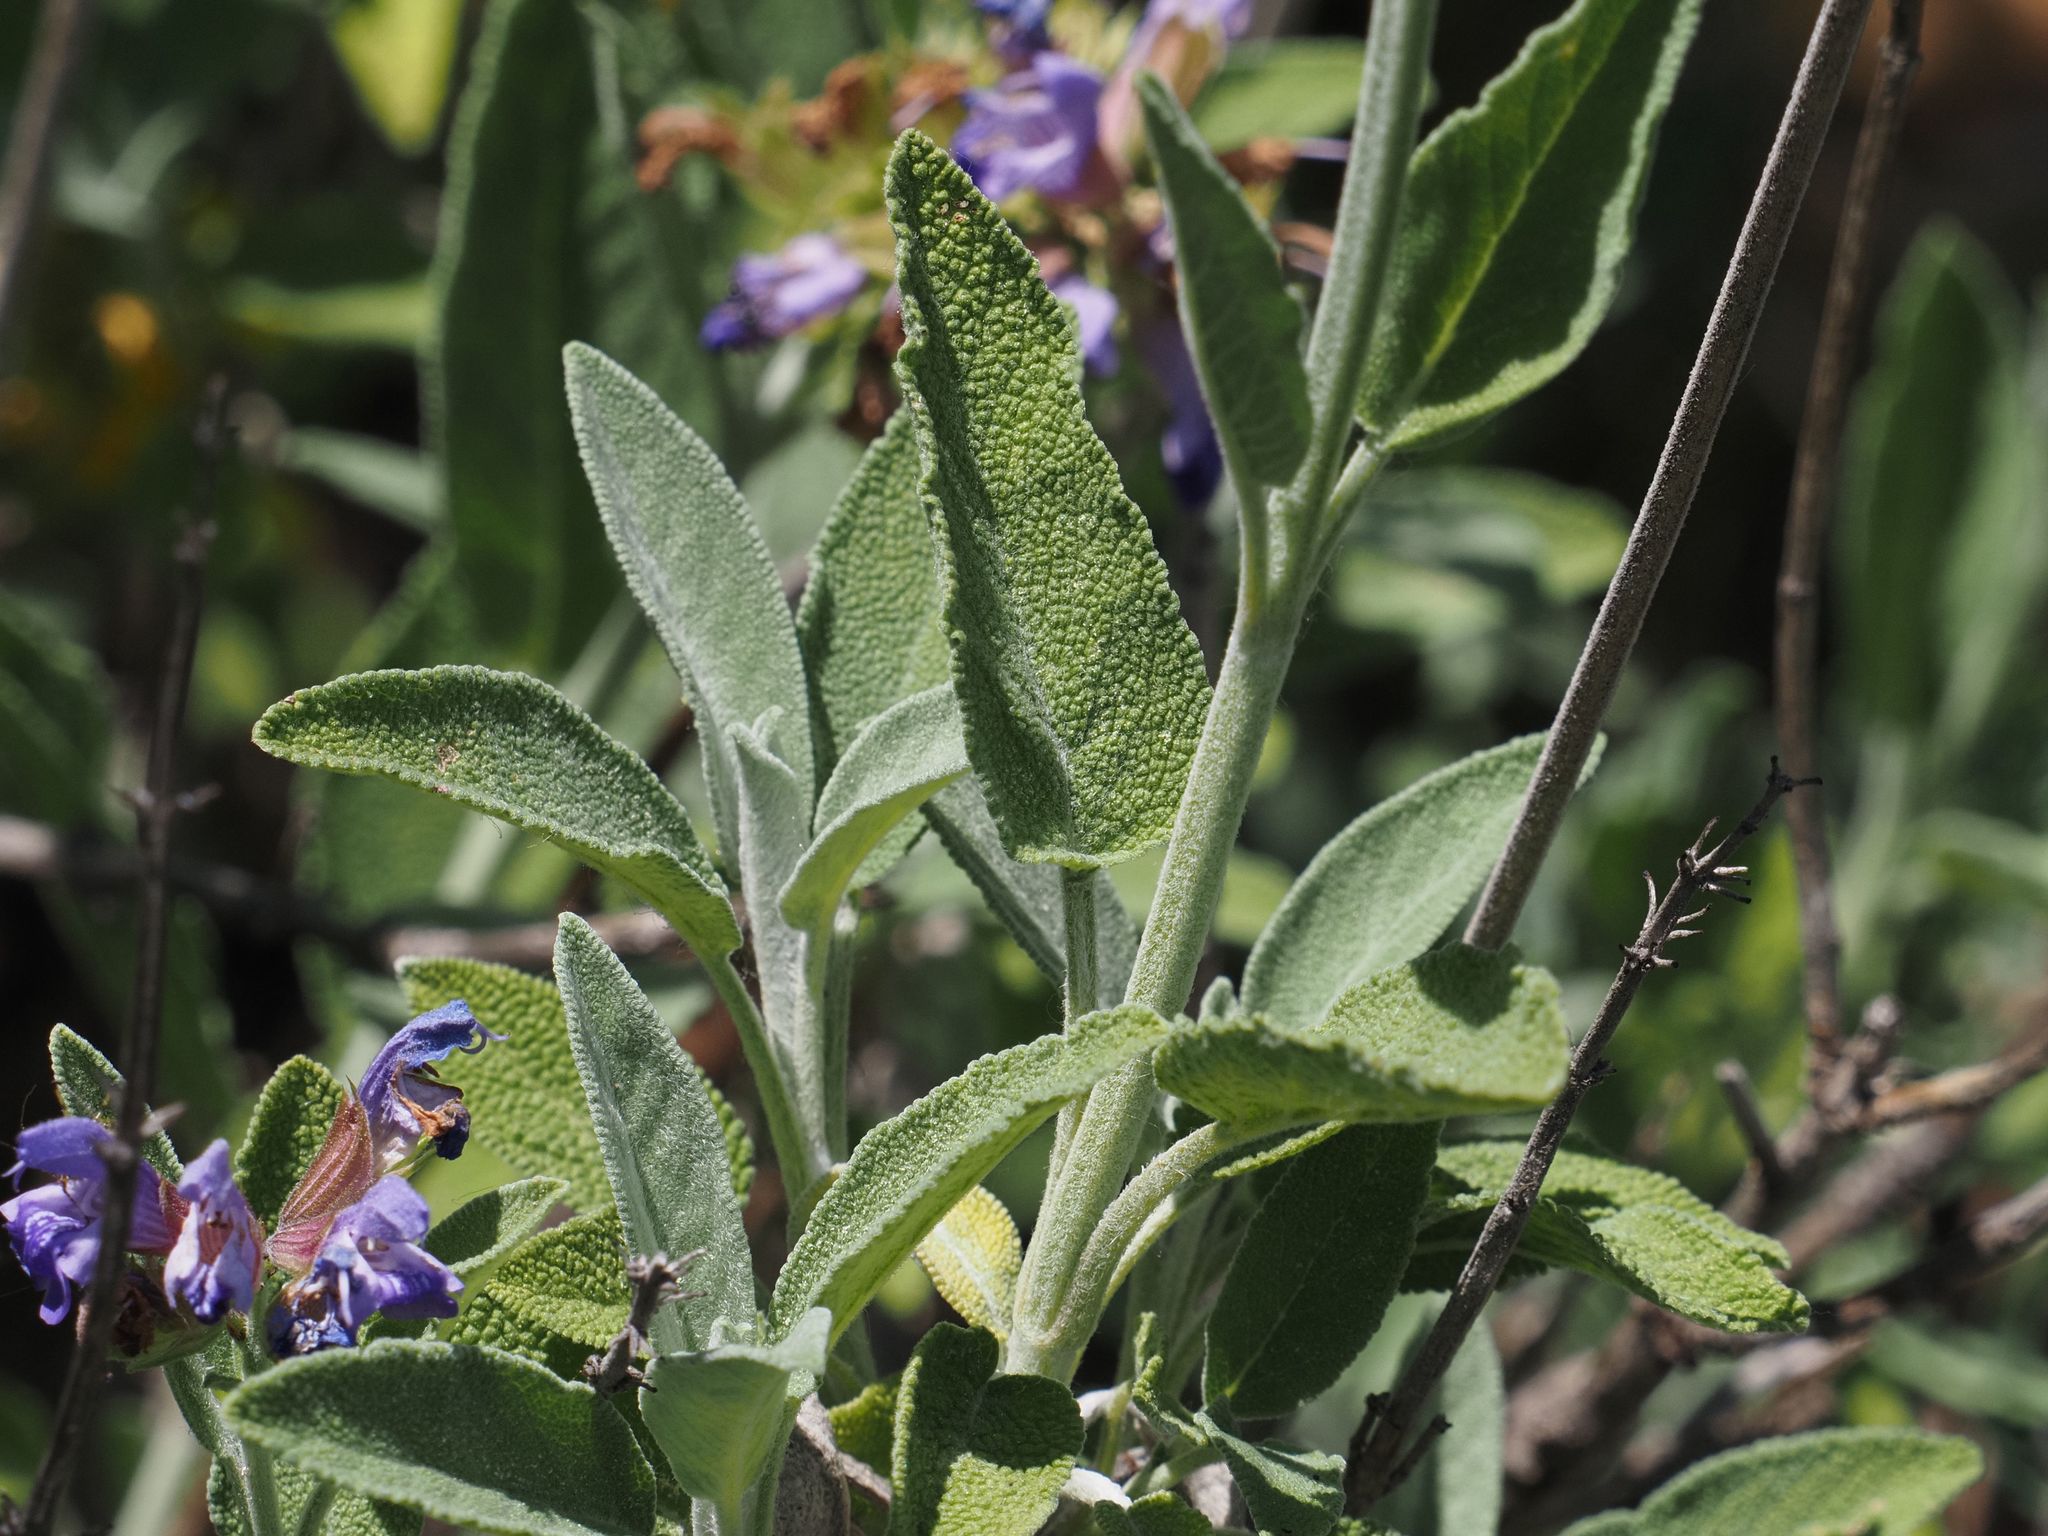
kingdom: Plantae
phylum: Tracheophyta
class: Magnoliopsida
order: Lamiales
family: Lamiaceae
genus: Salvia
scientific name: Salvia officinalis
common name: Sage
